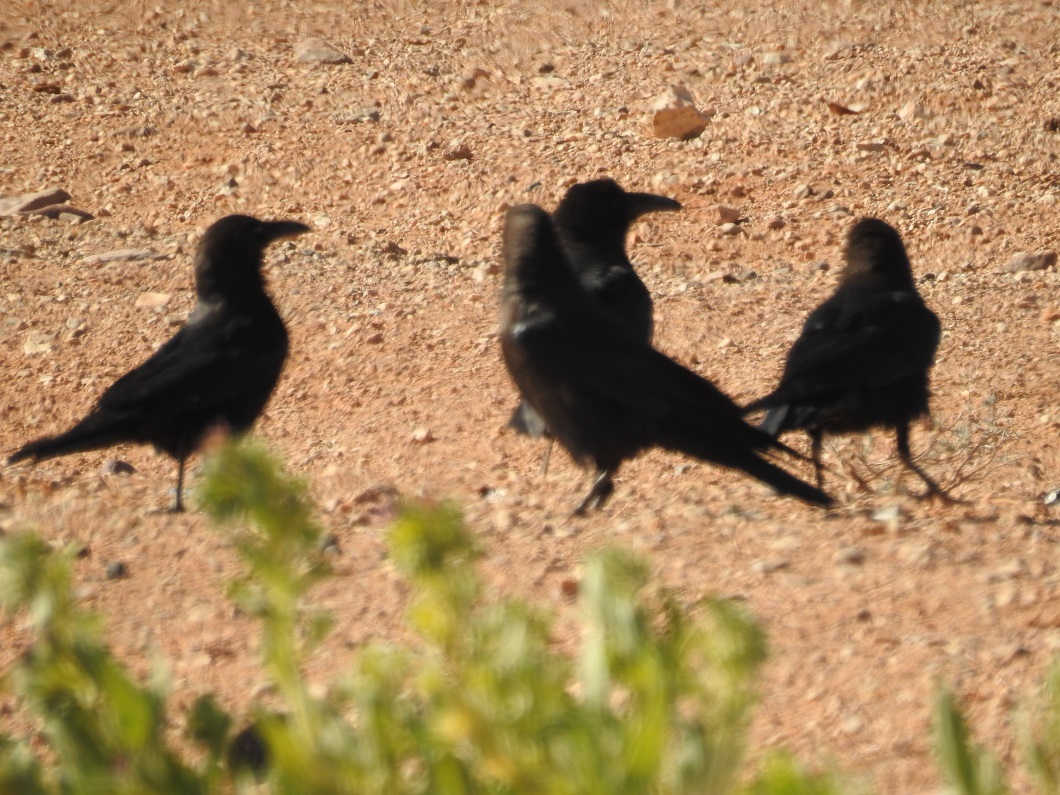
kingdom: Animalia
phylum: Chordata
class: Aves
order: Passeriformes
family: Corvidae
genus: Corvus
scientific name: Corvus ruficollis
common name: Brown-necked raven
